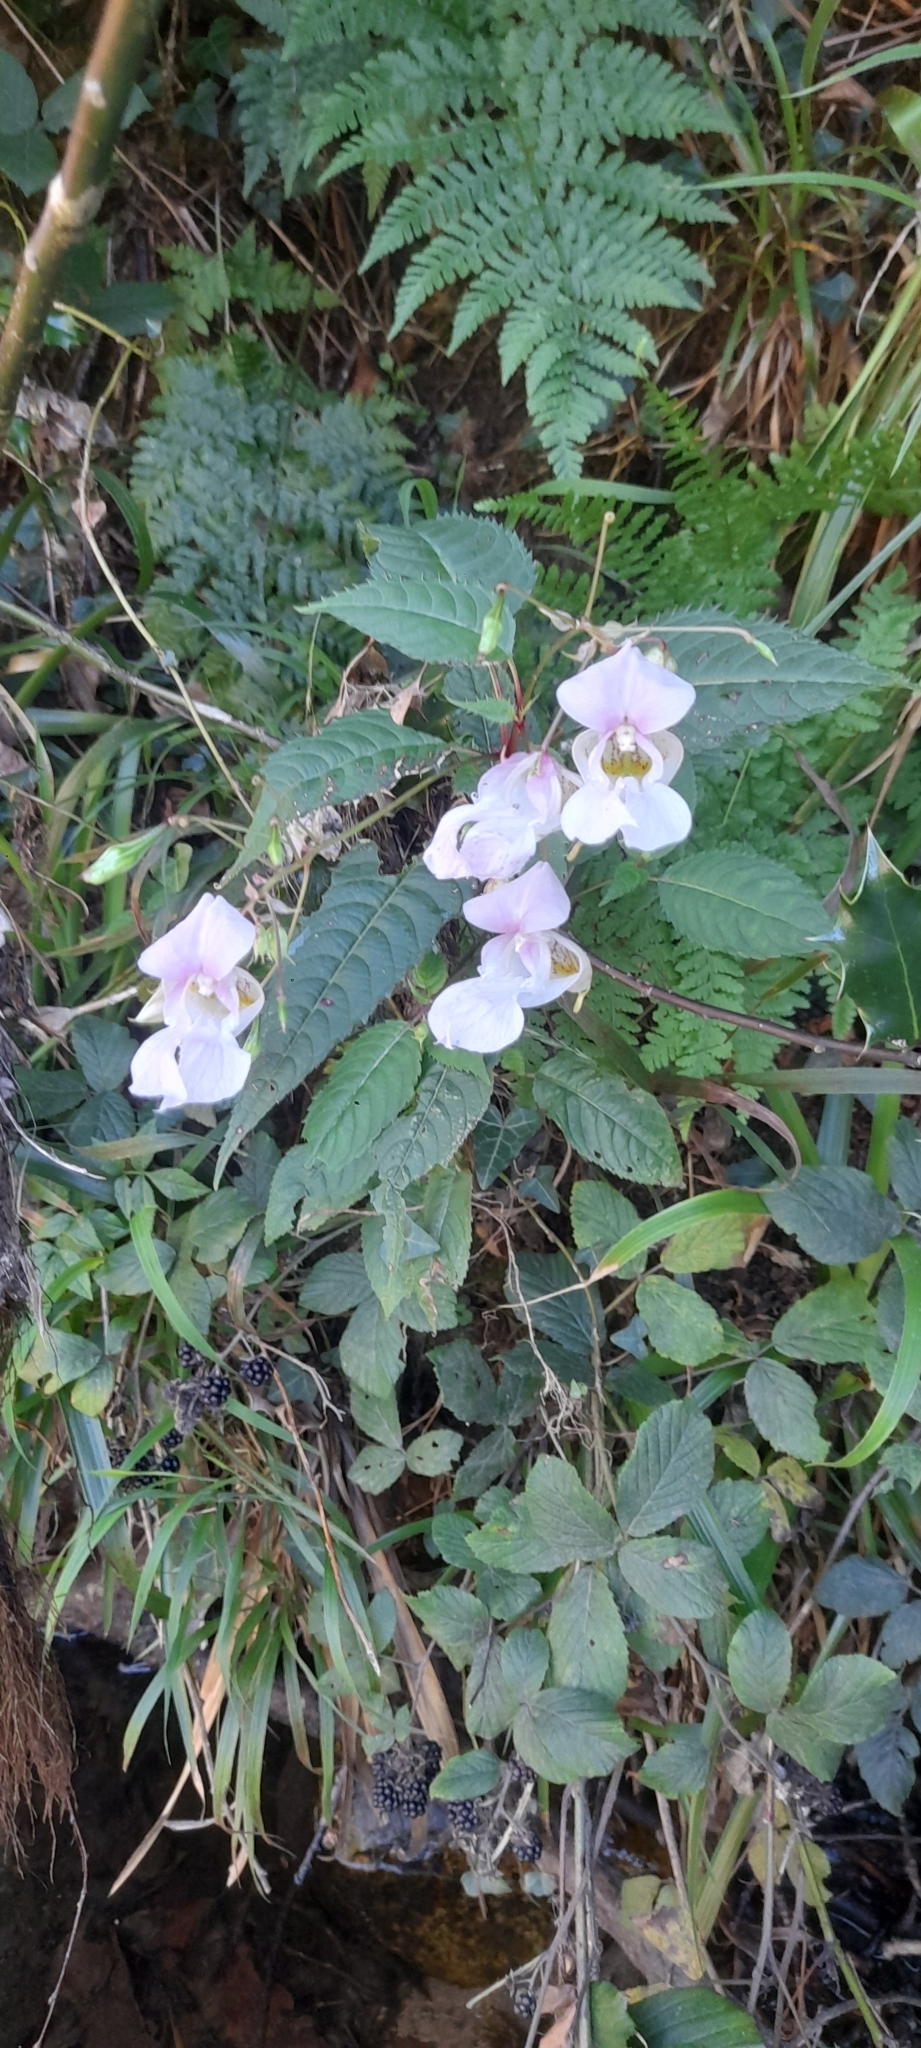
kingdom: Plantae
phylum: Tracheophyta
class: Magnoliopsida
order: Ericales
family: Balsaminaceae
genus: Impatiens
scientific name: Impatiens glandulifera
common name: Himalayan balsam
